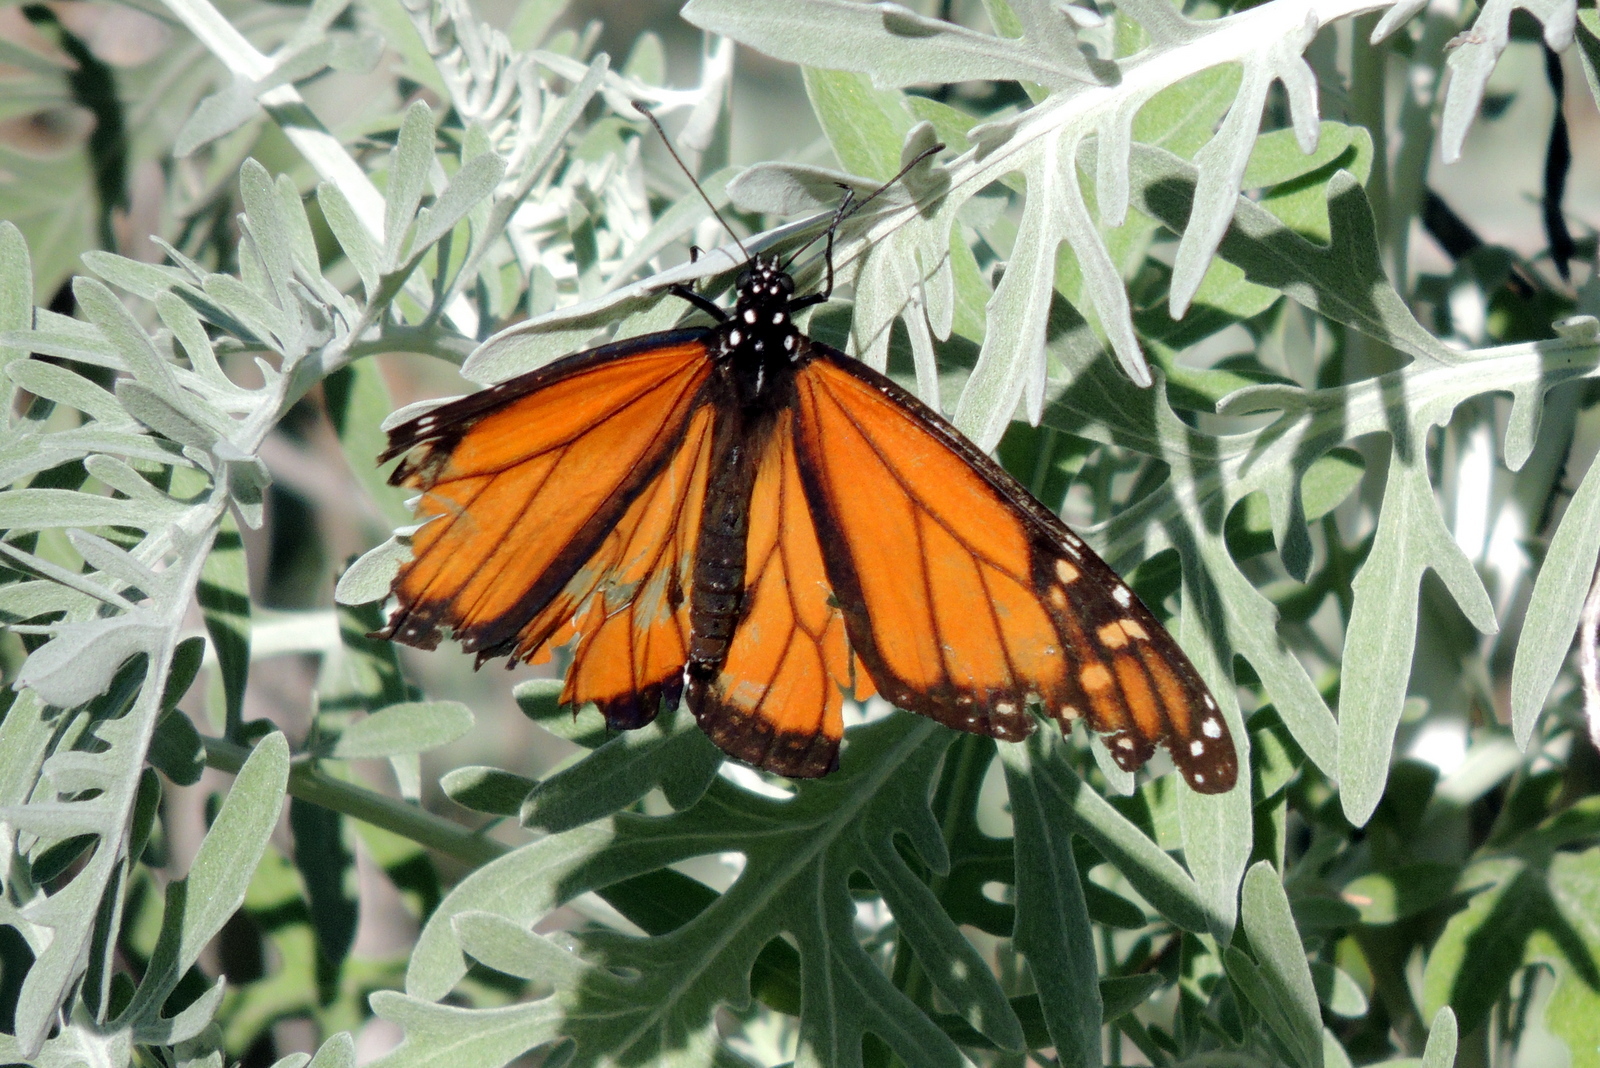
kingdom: Animalia
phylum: Arthropoda
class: Insecta
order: Lepidoptera
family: Nymphalidae
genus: Danaus
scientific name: Danaus plexippus
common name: Monarch
